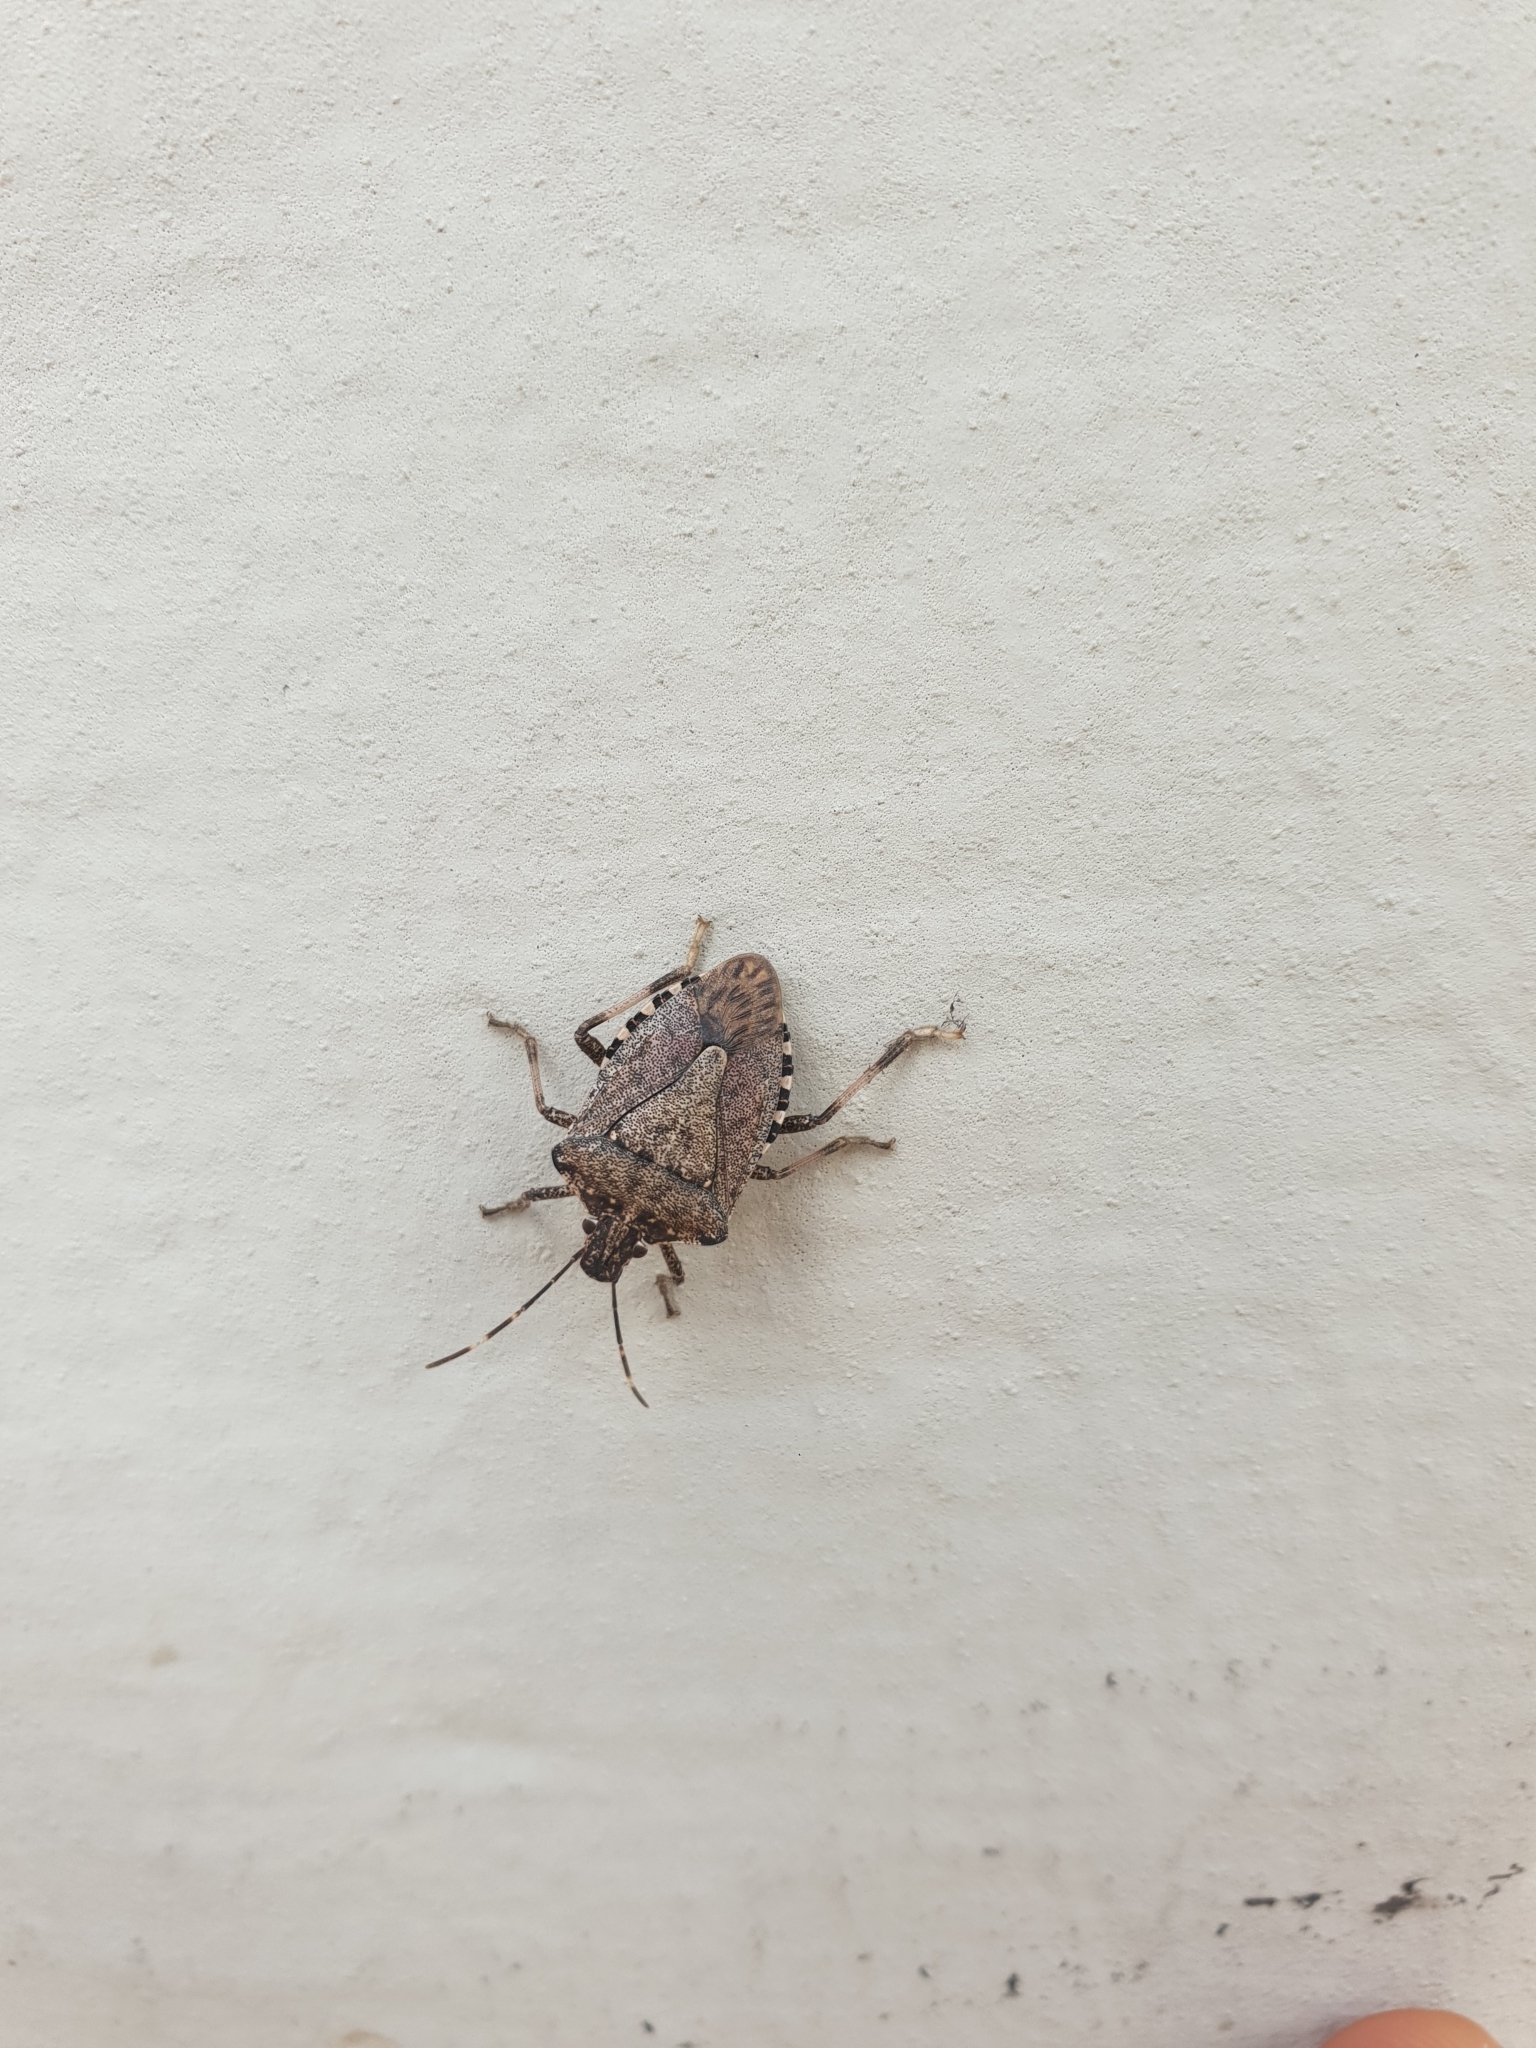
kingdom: Animalia
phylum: Arthropoda
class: Insecta
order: Hemiptera
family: Pentatomidae
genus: Halyomorpha
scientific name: Halyomorpha halys
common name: Brown marmorated stink bug
